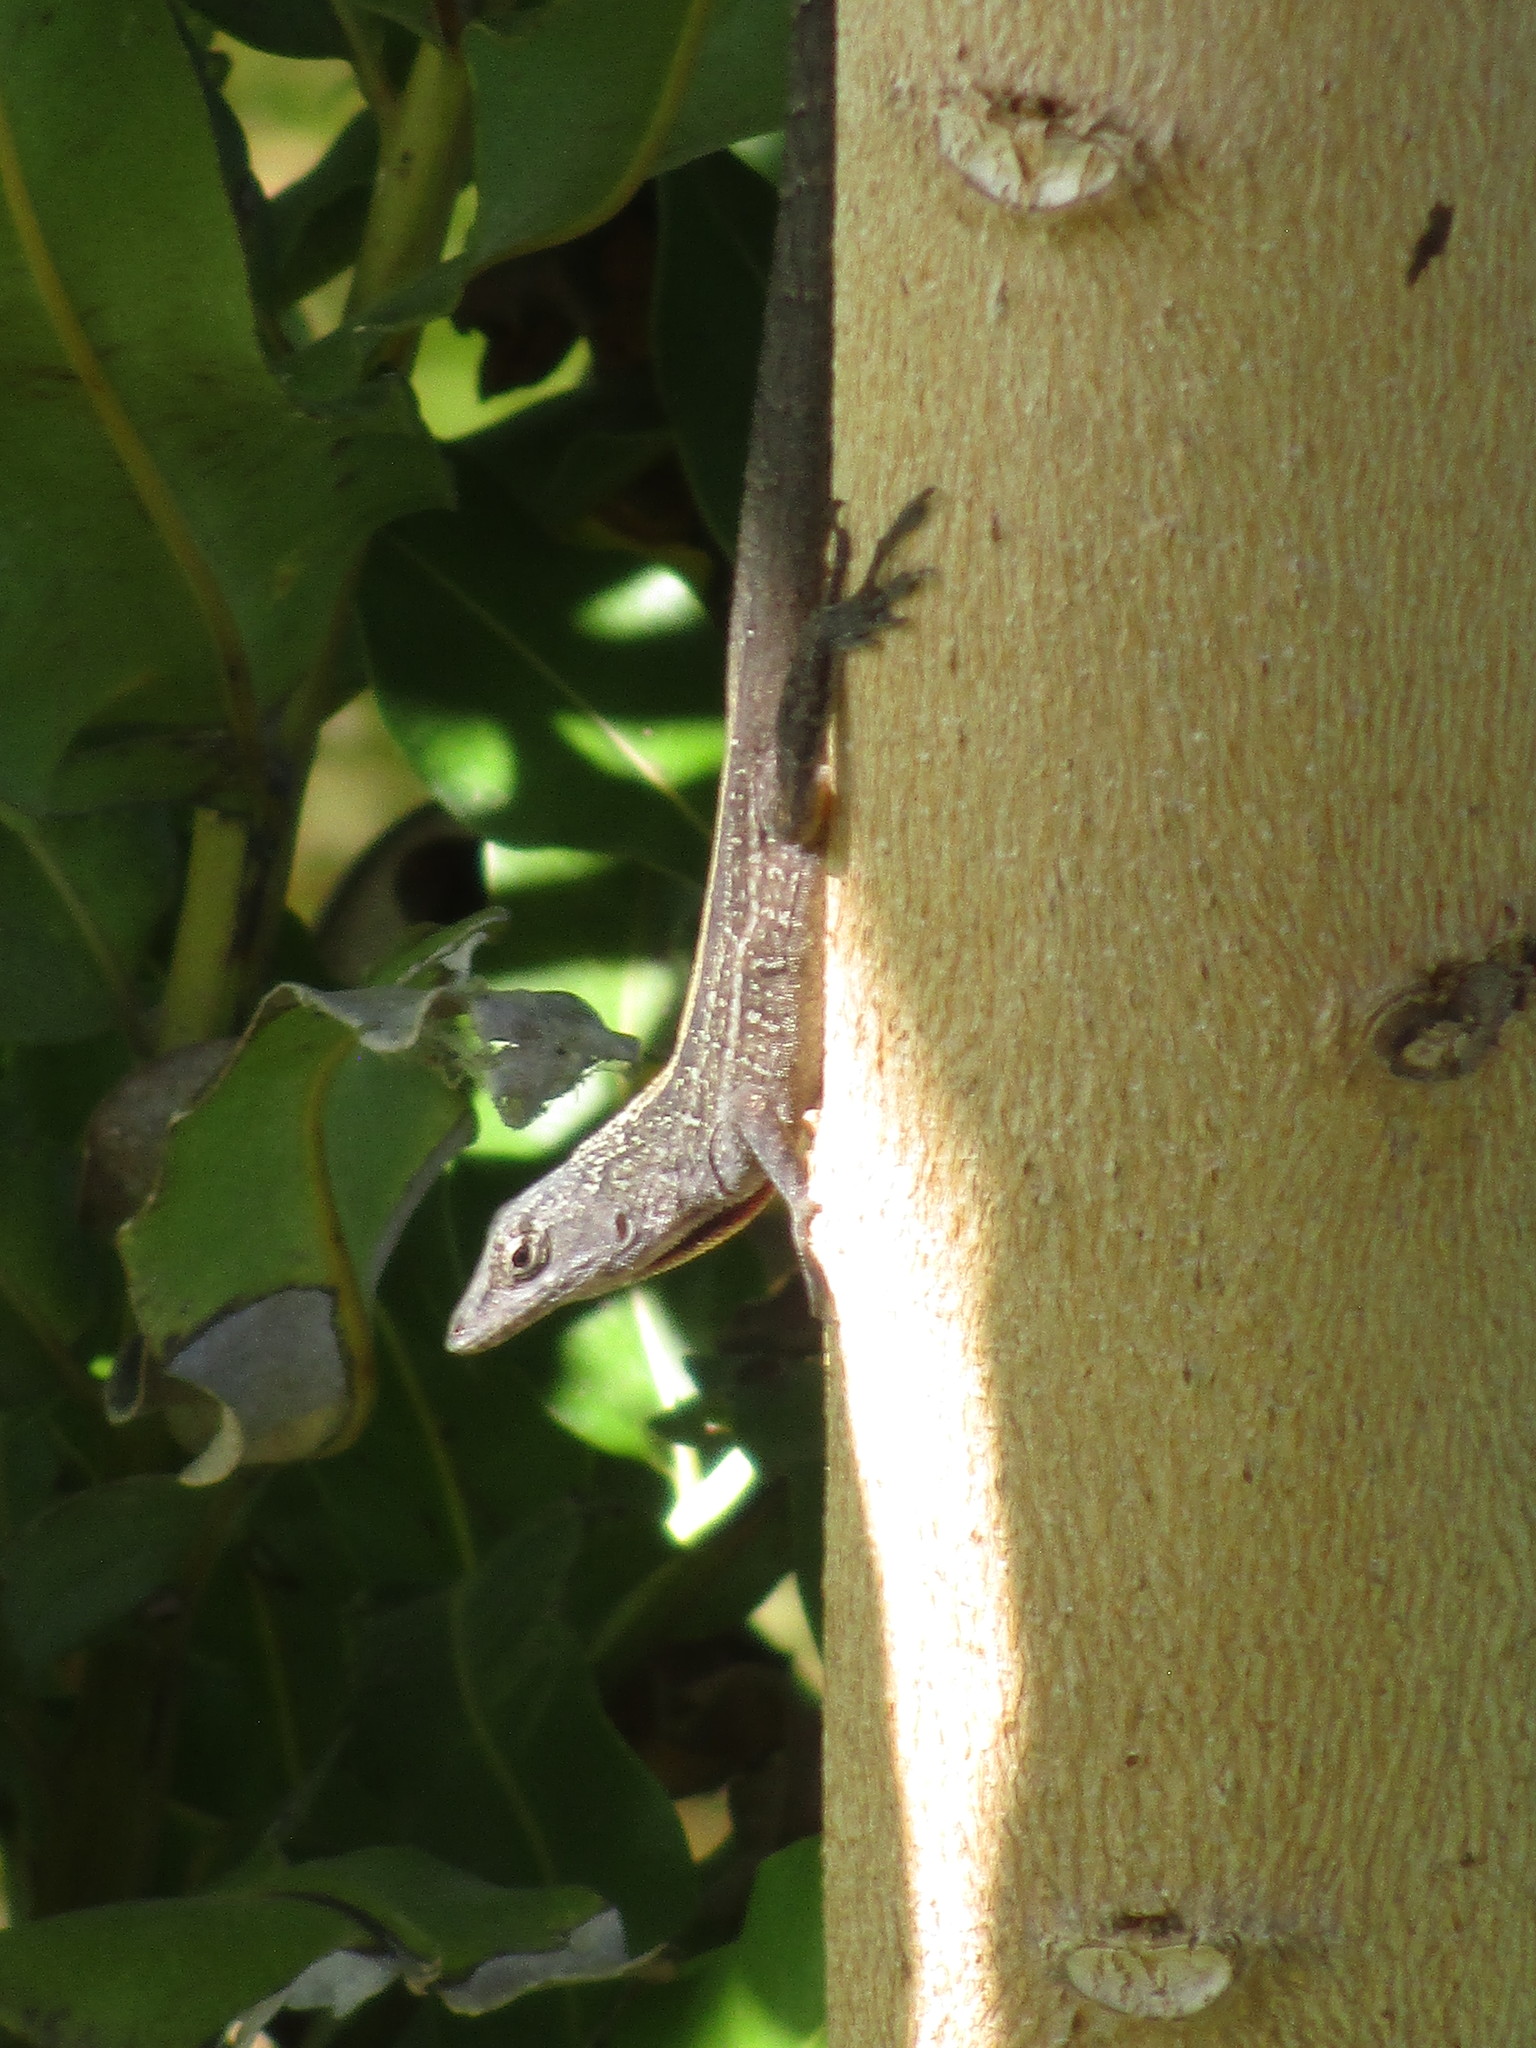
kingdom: Animalia
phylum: Chordata
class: Squamata
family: Dactyloidae
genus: Anolis
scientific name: Anolis sagrei
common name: Brown anole
